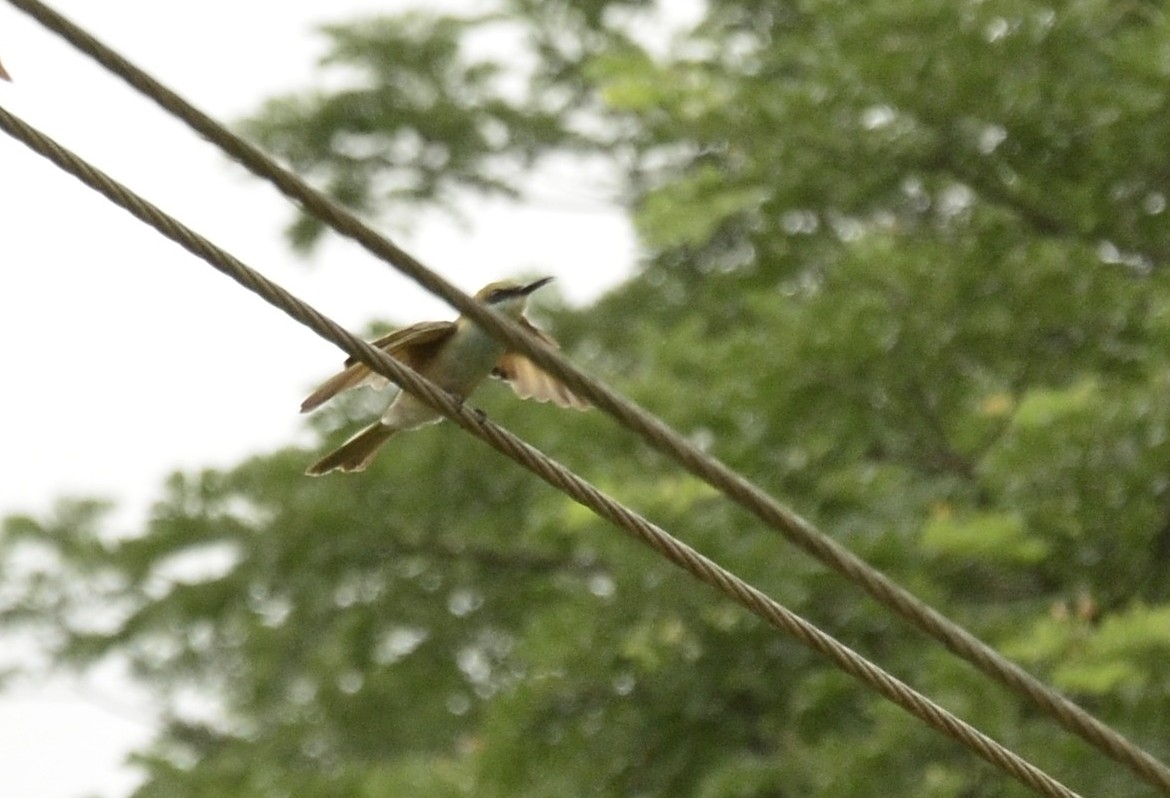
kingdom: Animalia
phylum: Chordata
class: Aves
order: Coraciiformes
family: Meropidae
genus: Merops
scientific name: Merops orientalis
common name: Green bee-eater
